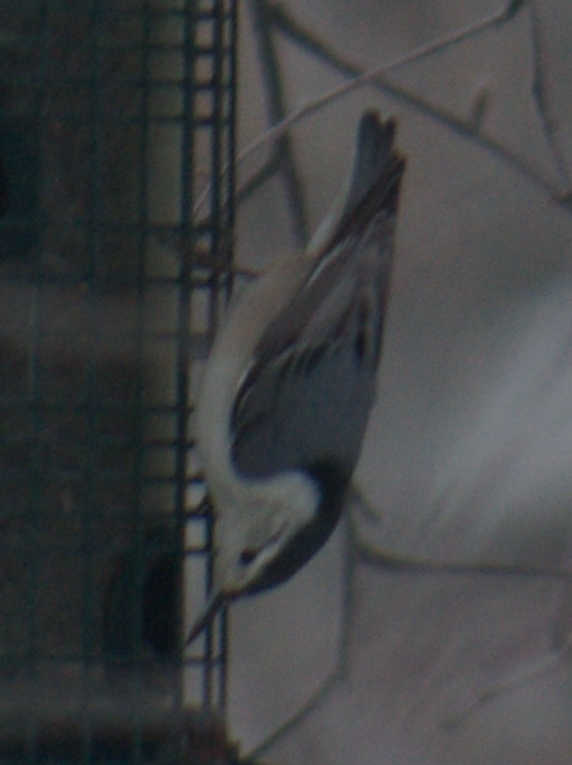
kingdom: Animalia
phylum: Chordata
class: Aves
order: Passeriformes
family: Sittidae
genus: Sitta
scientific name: Sitta carolinensis
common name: White-breasted nuthatch
